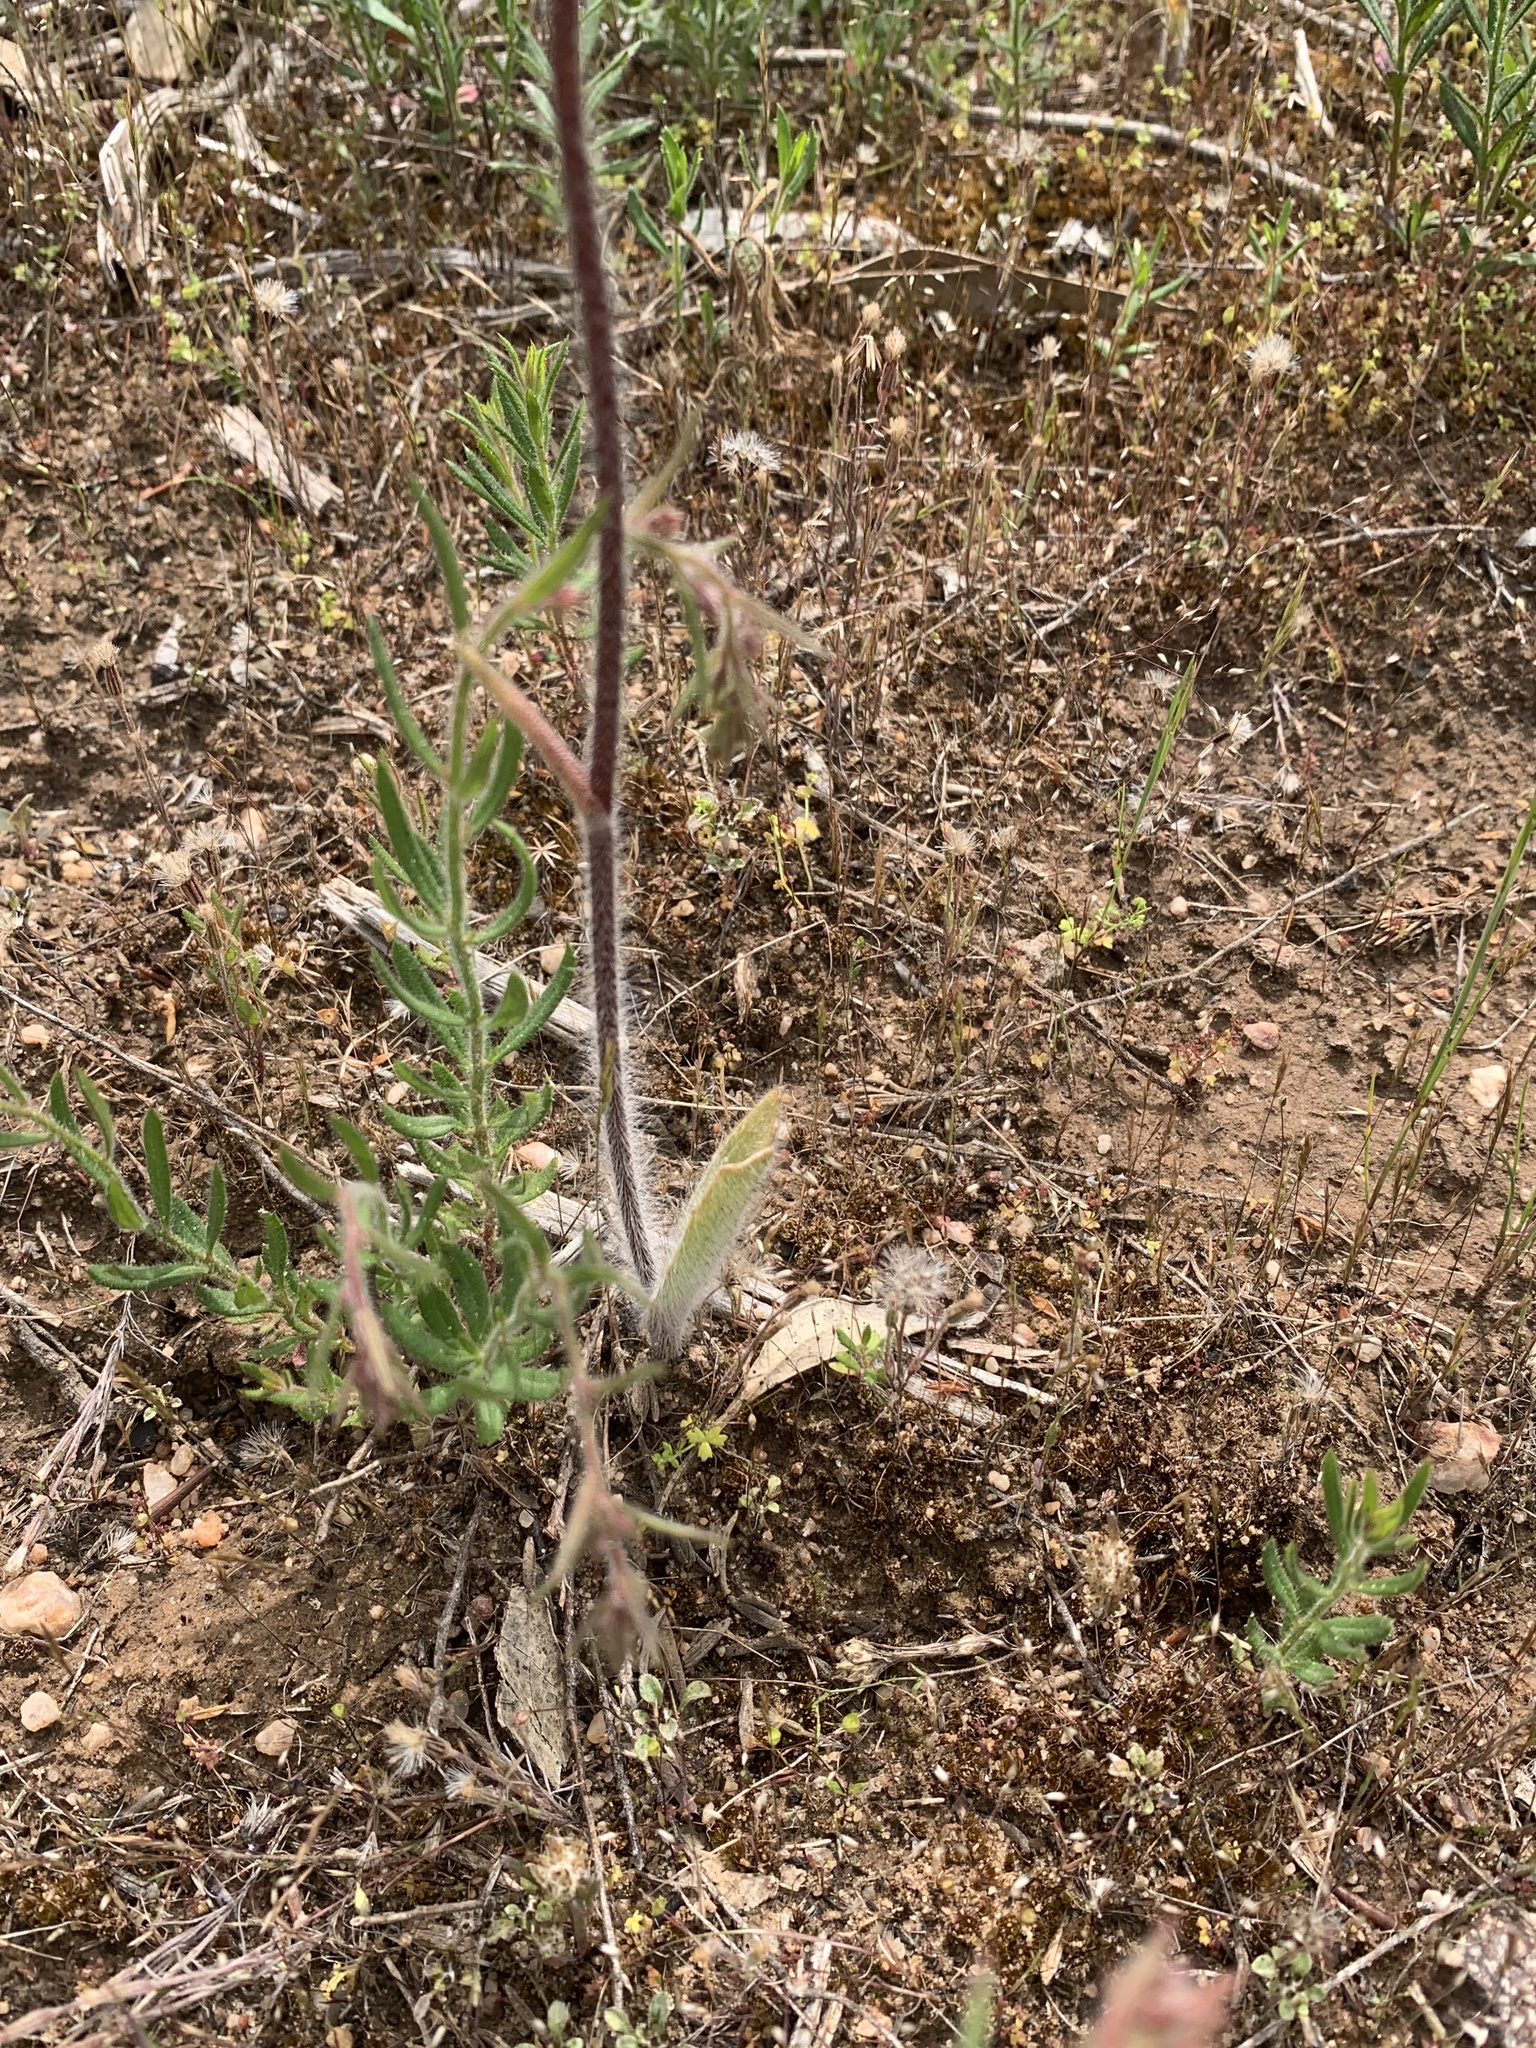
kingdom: Plantae
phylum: Tracheophyta
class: Liliopsida
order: Asparagales
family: Orchidaceae
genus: Caladenia
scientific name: Caladenia tentaculata
